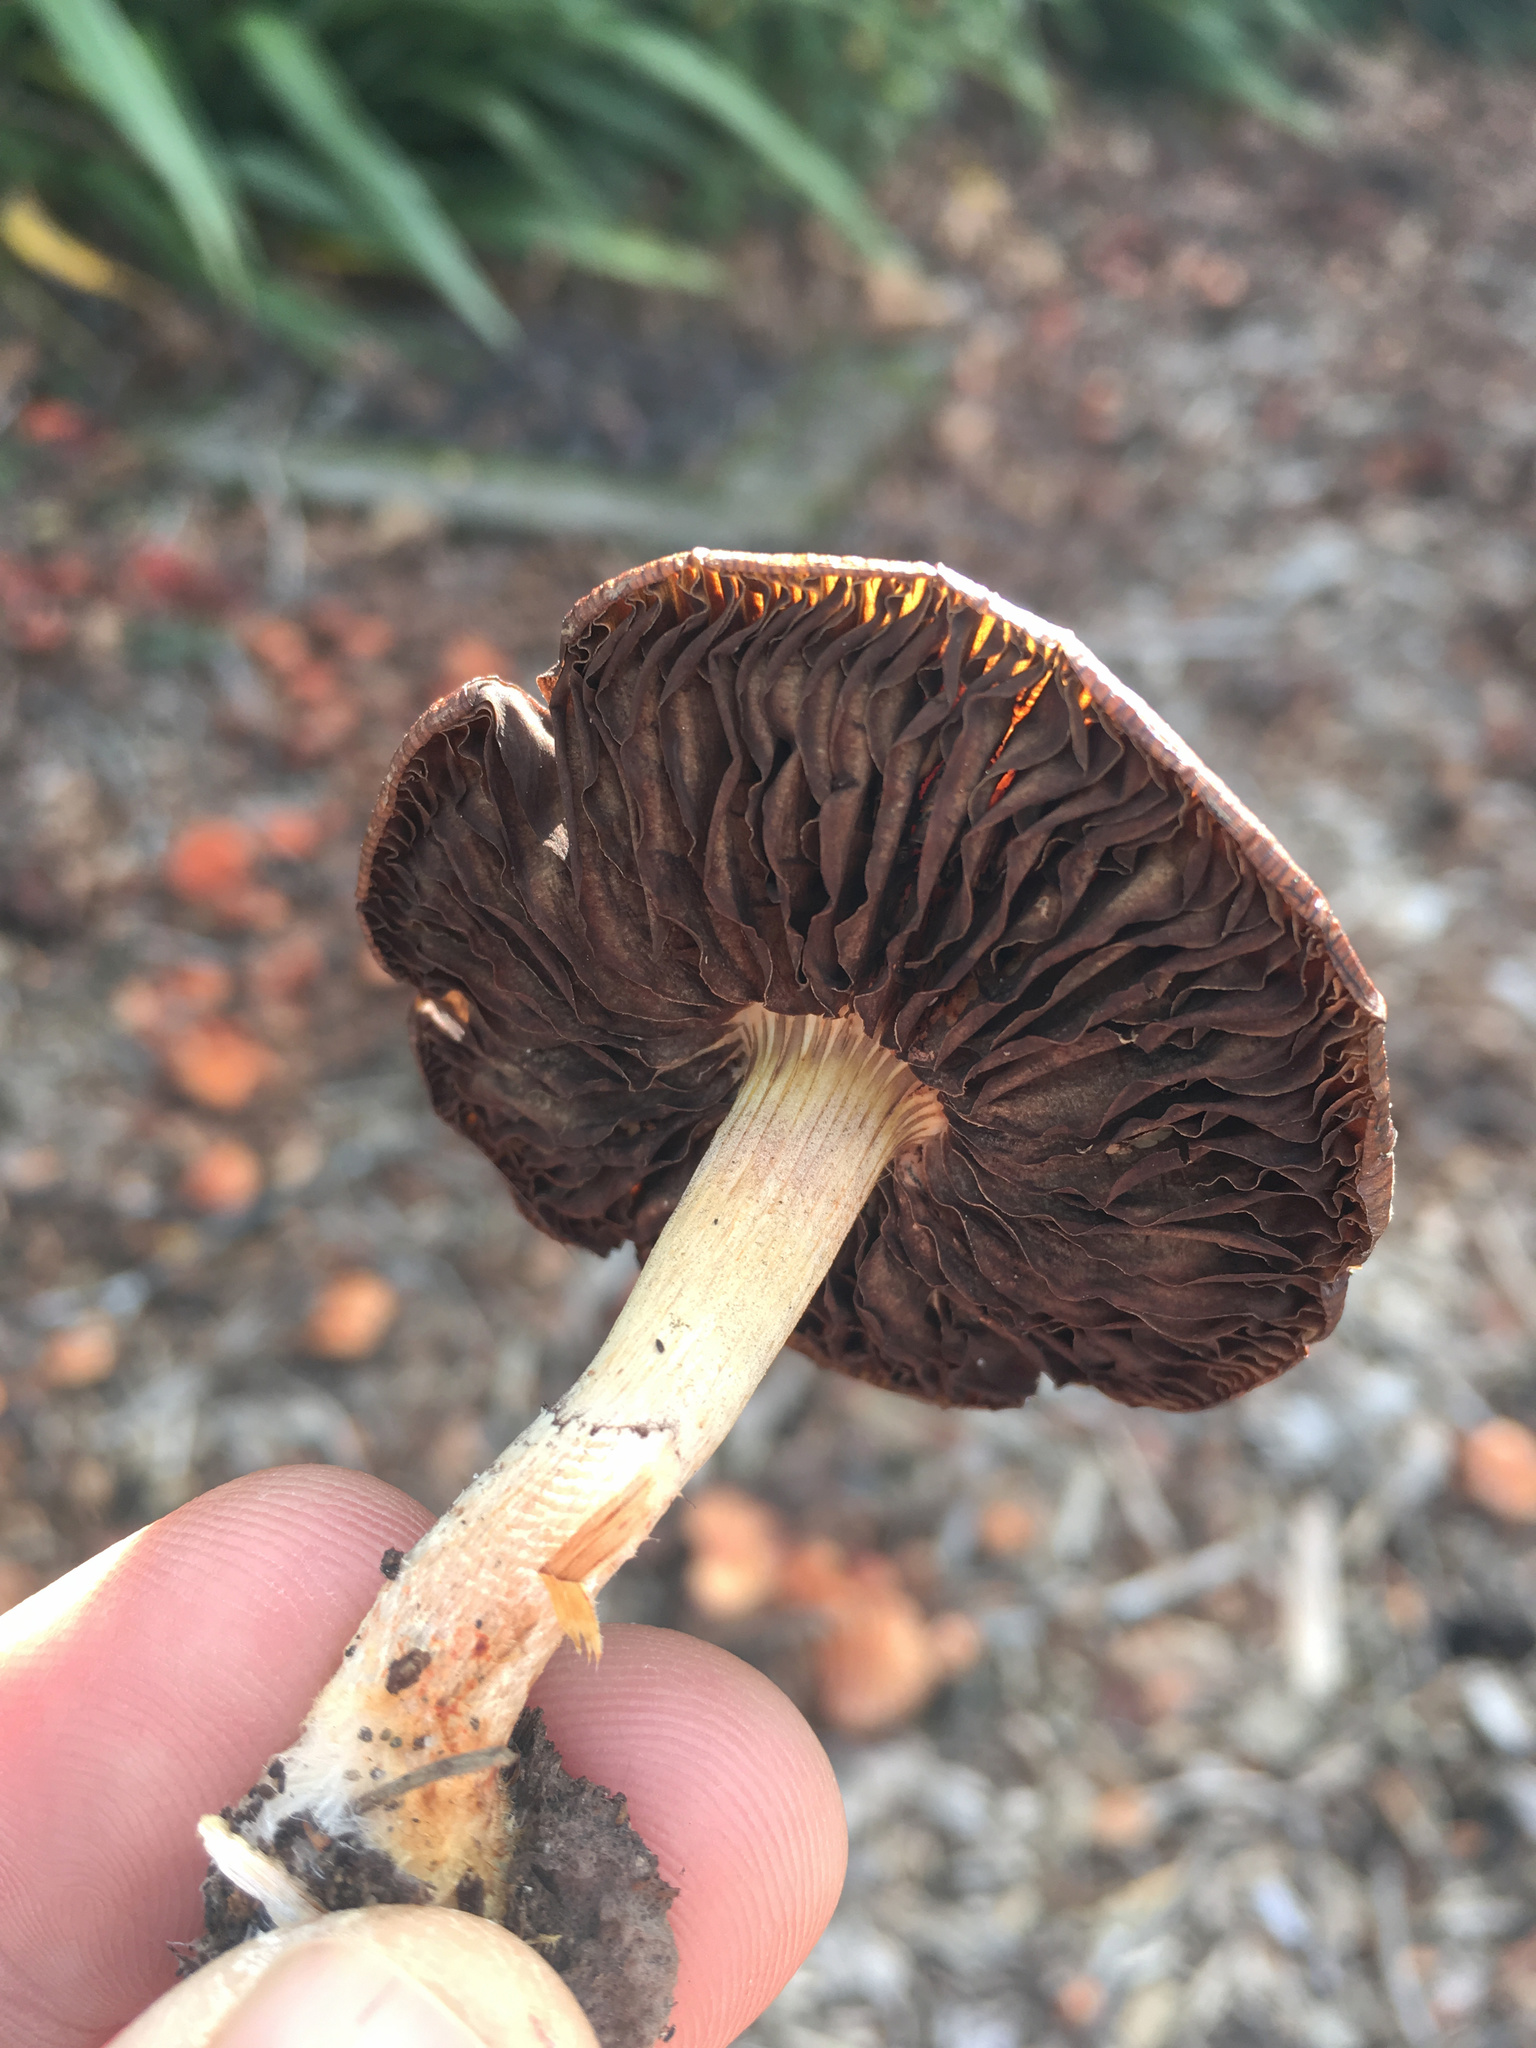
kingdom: Fungi
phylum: Basidiomycota
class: Agaricomycetes
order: Agaricales
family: Strophariaceae
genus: Leratiomyces
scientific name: Leratiomyces ceres
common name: Redlead roundhead
